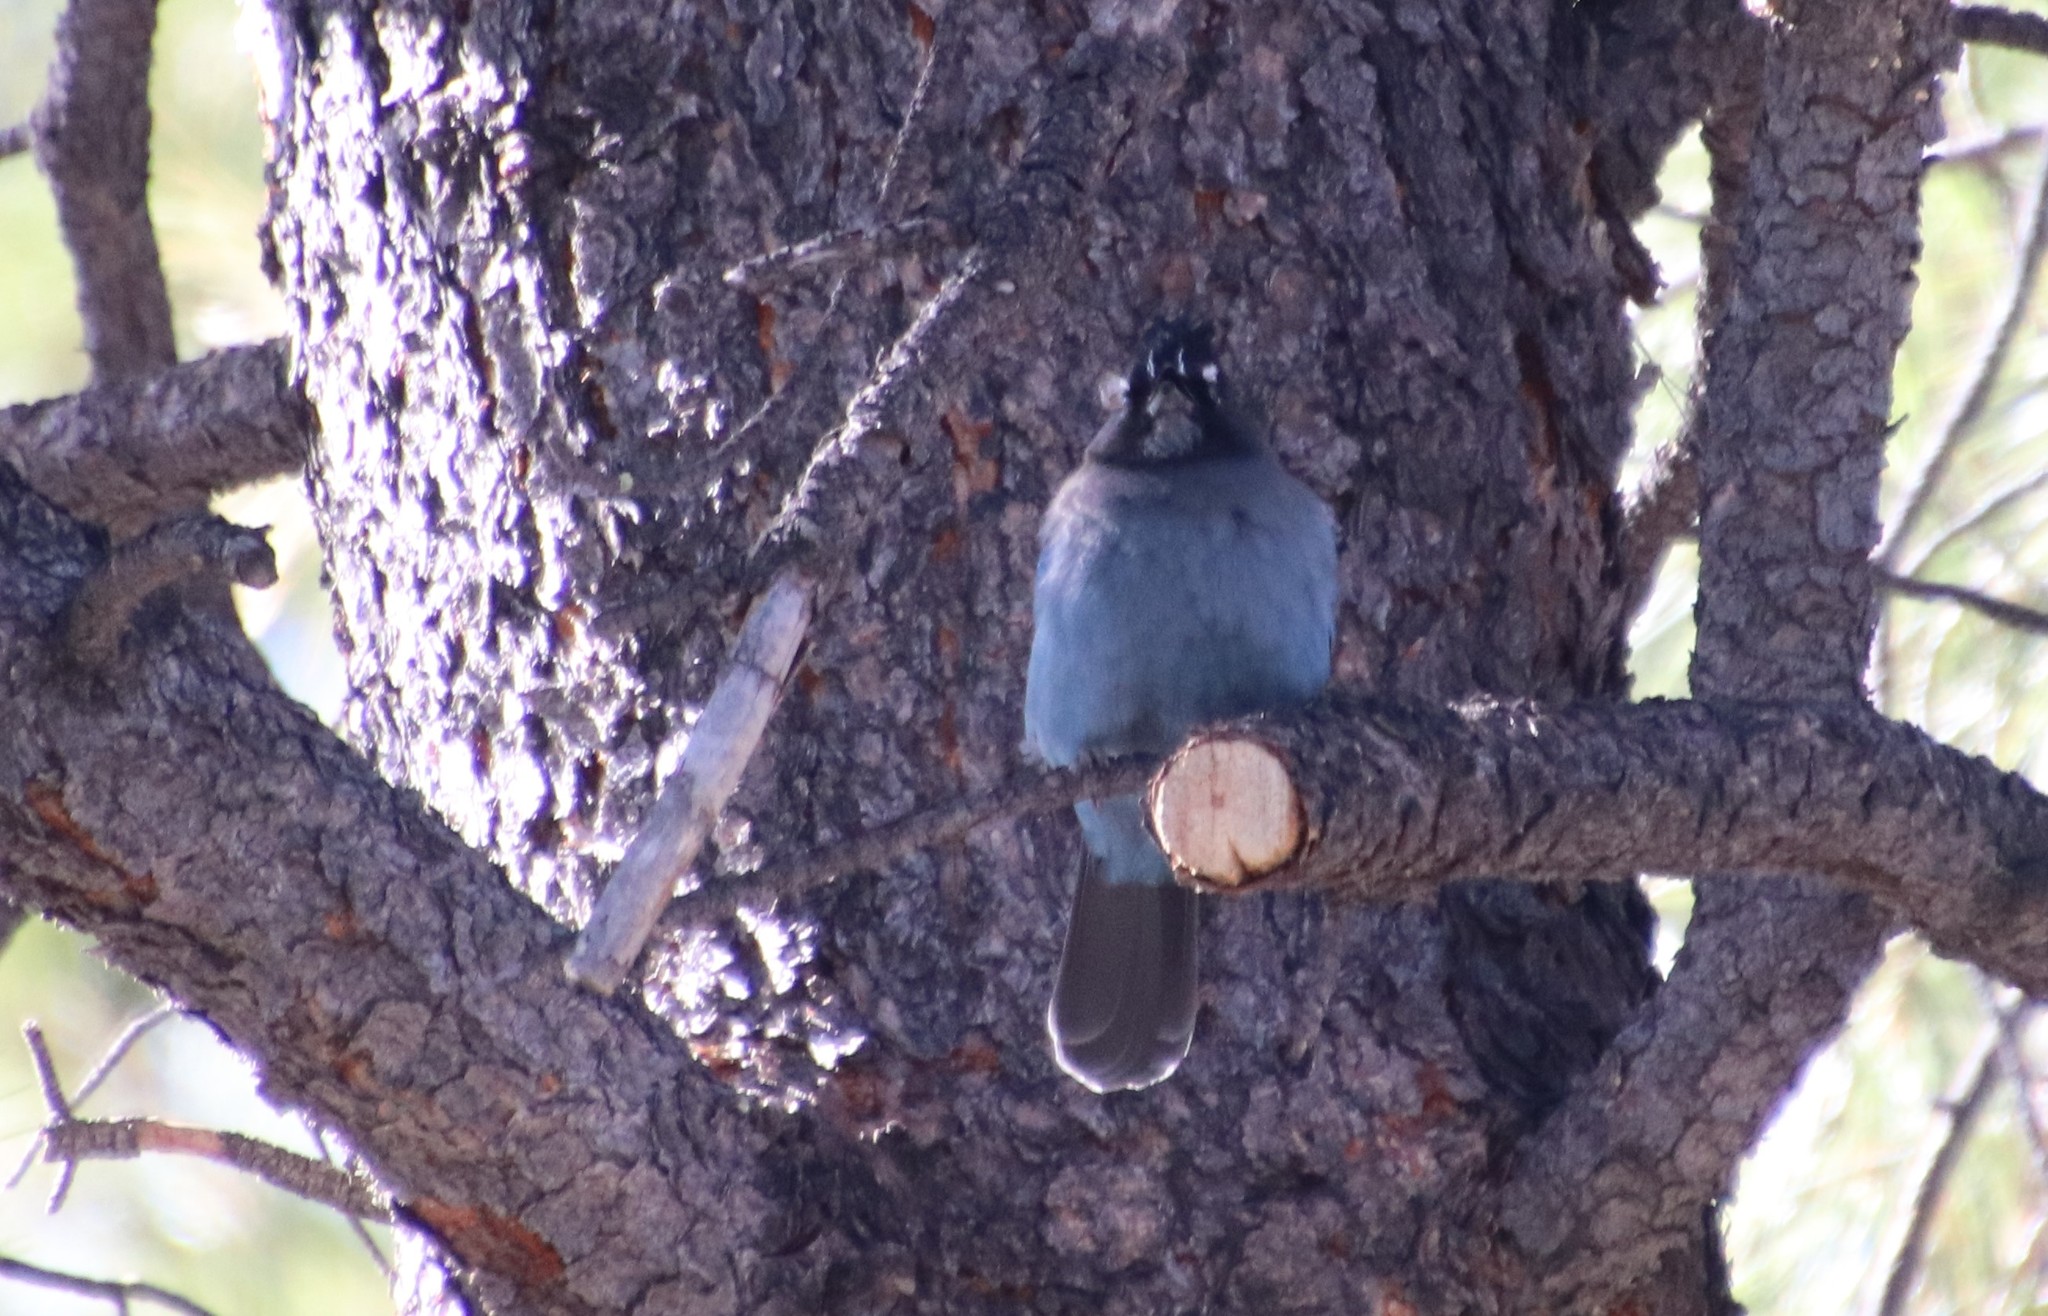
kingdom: Animalia
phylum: Chordata
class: Aves
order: Passeriformes
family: Corvidae
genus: Cyanocitta
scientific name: Cyanocitta stelleri
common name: Steller's jay
